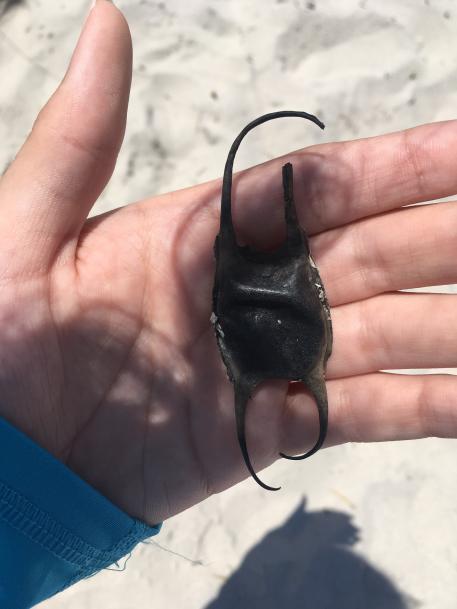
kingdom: Animalia
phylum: Chordata
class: Elasmobranchii
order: Rajiformes
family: Rajidae
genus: Leucoraja
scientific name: Leucoraja erinacea
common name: Little skate
